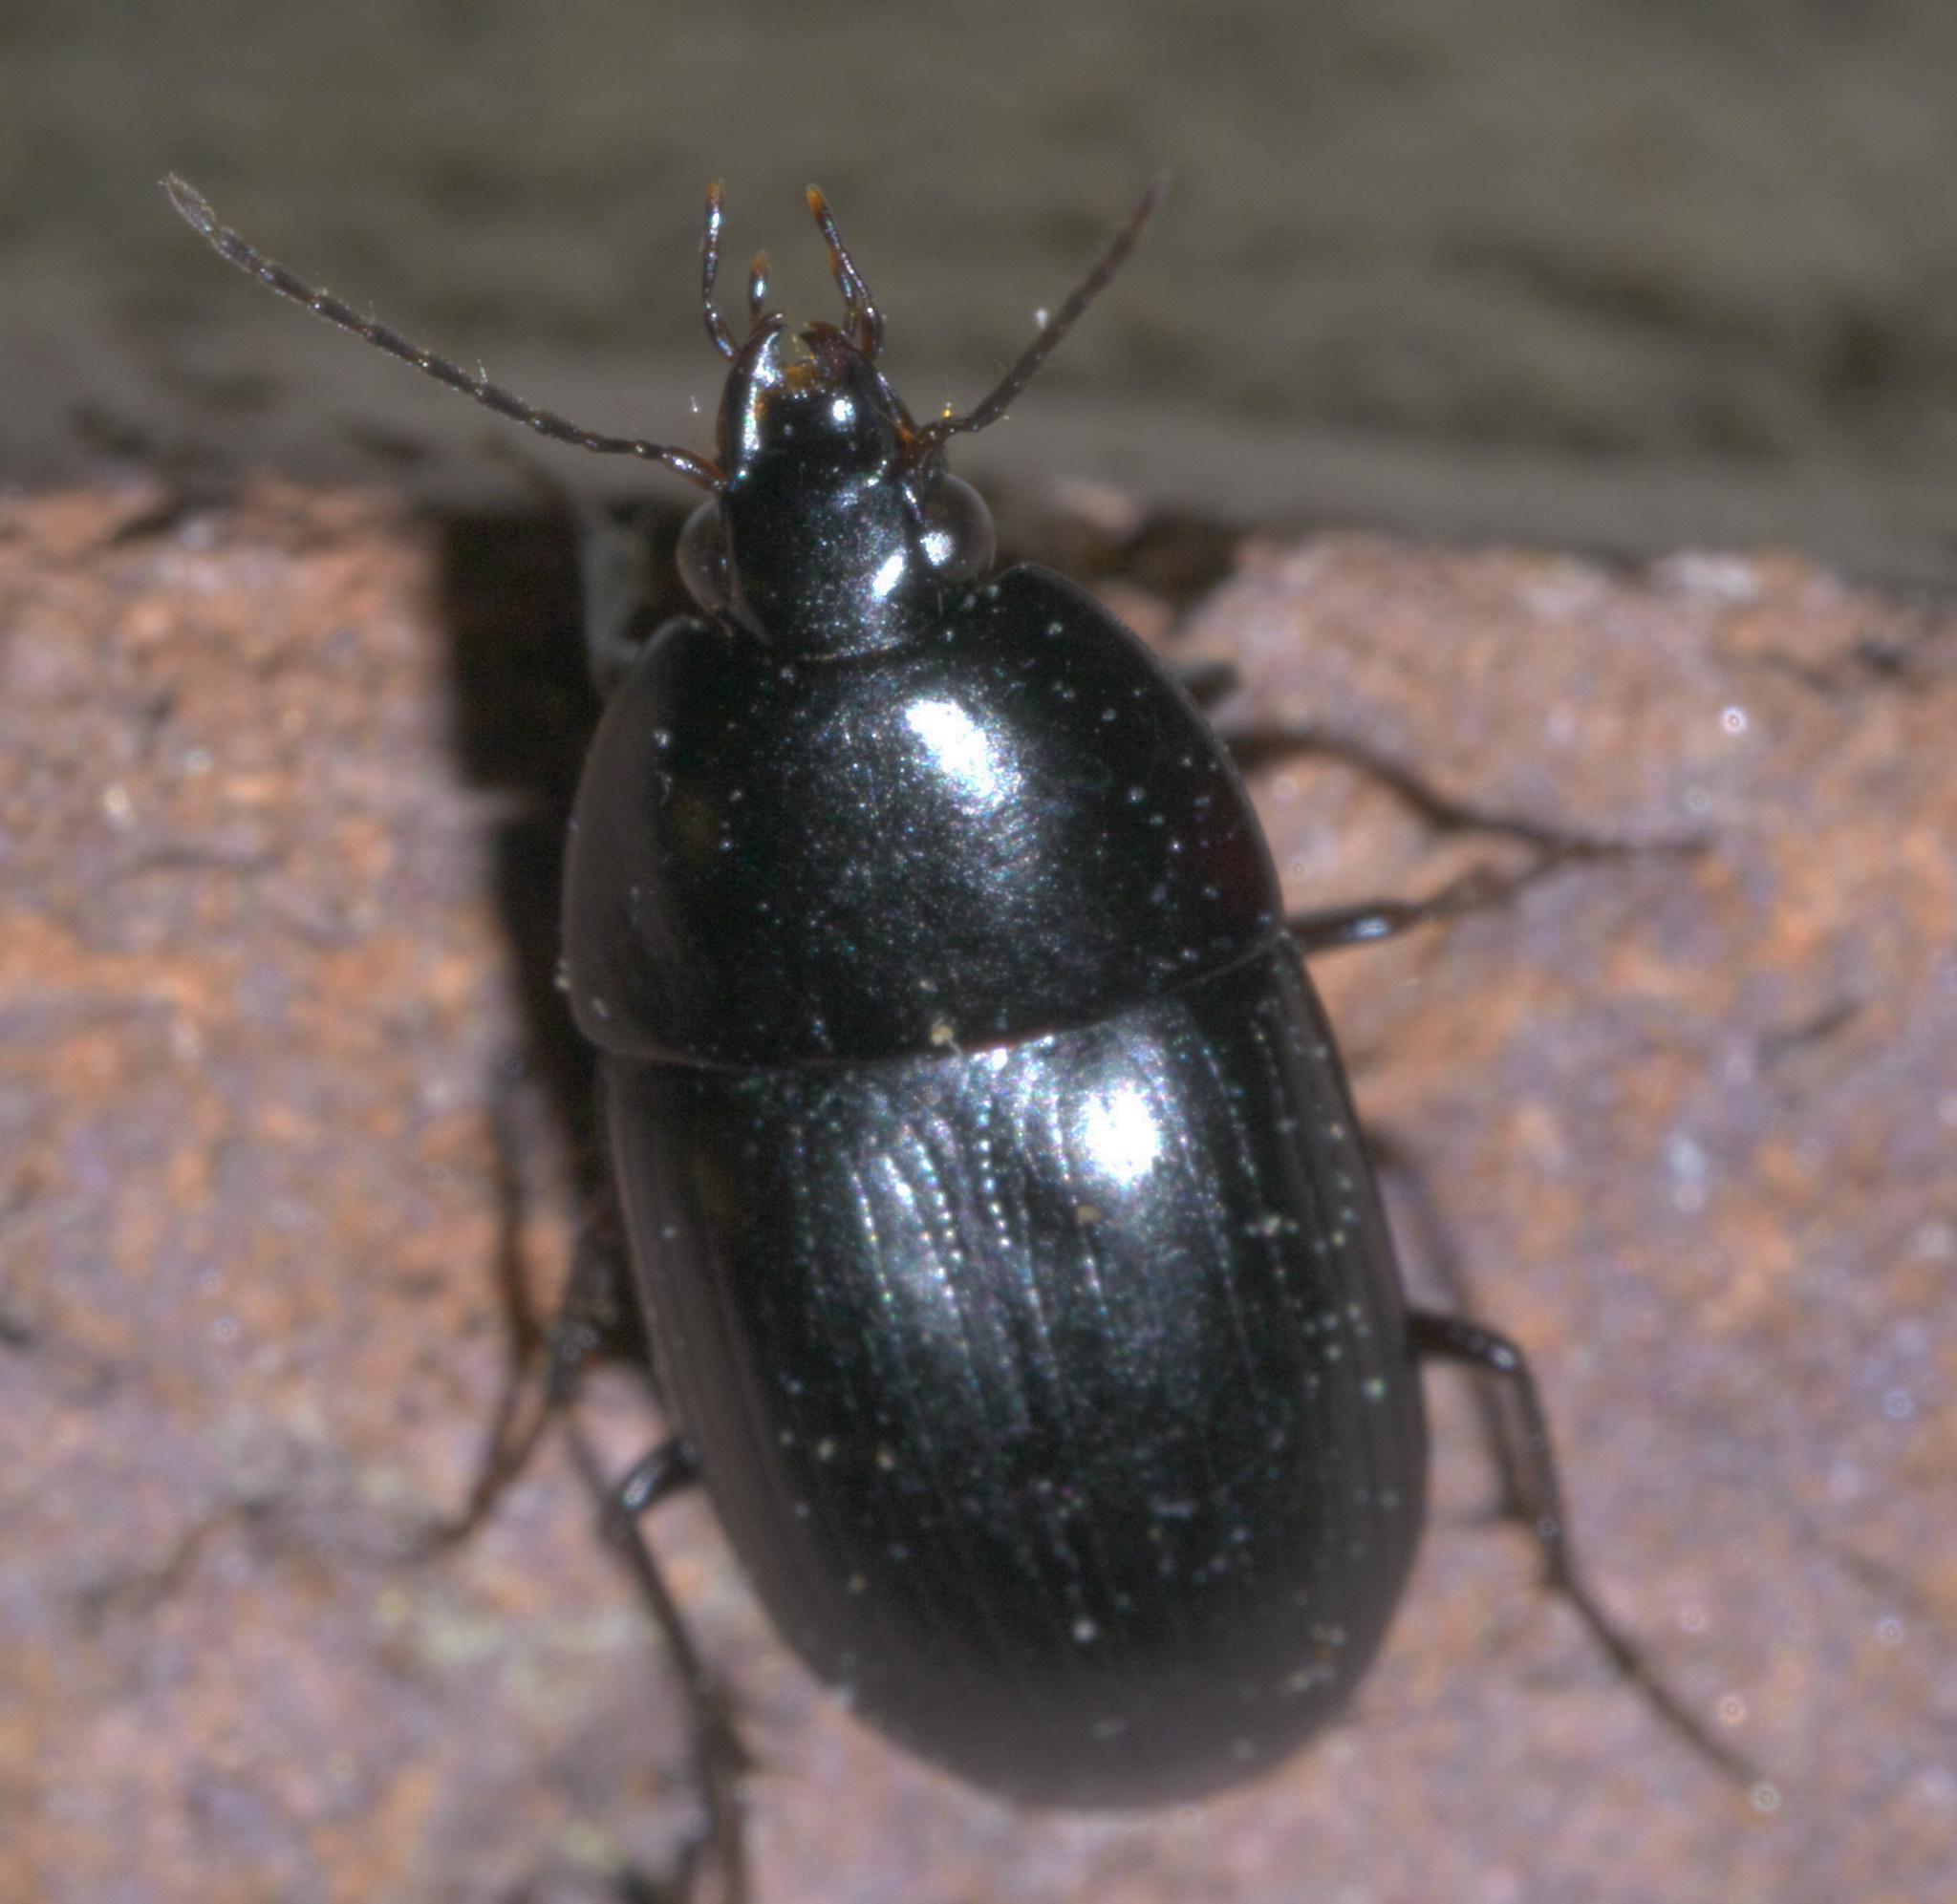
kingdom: Animalia
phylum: Arthropoda
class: Insecta
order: Coleoptera
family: Carabidae
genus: Oodes
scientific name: Oodes amaroides
